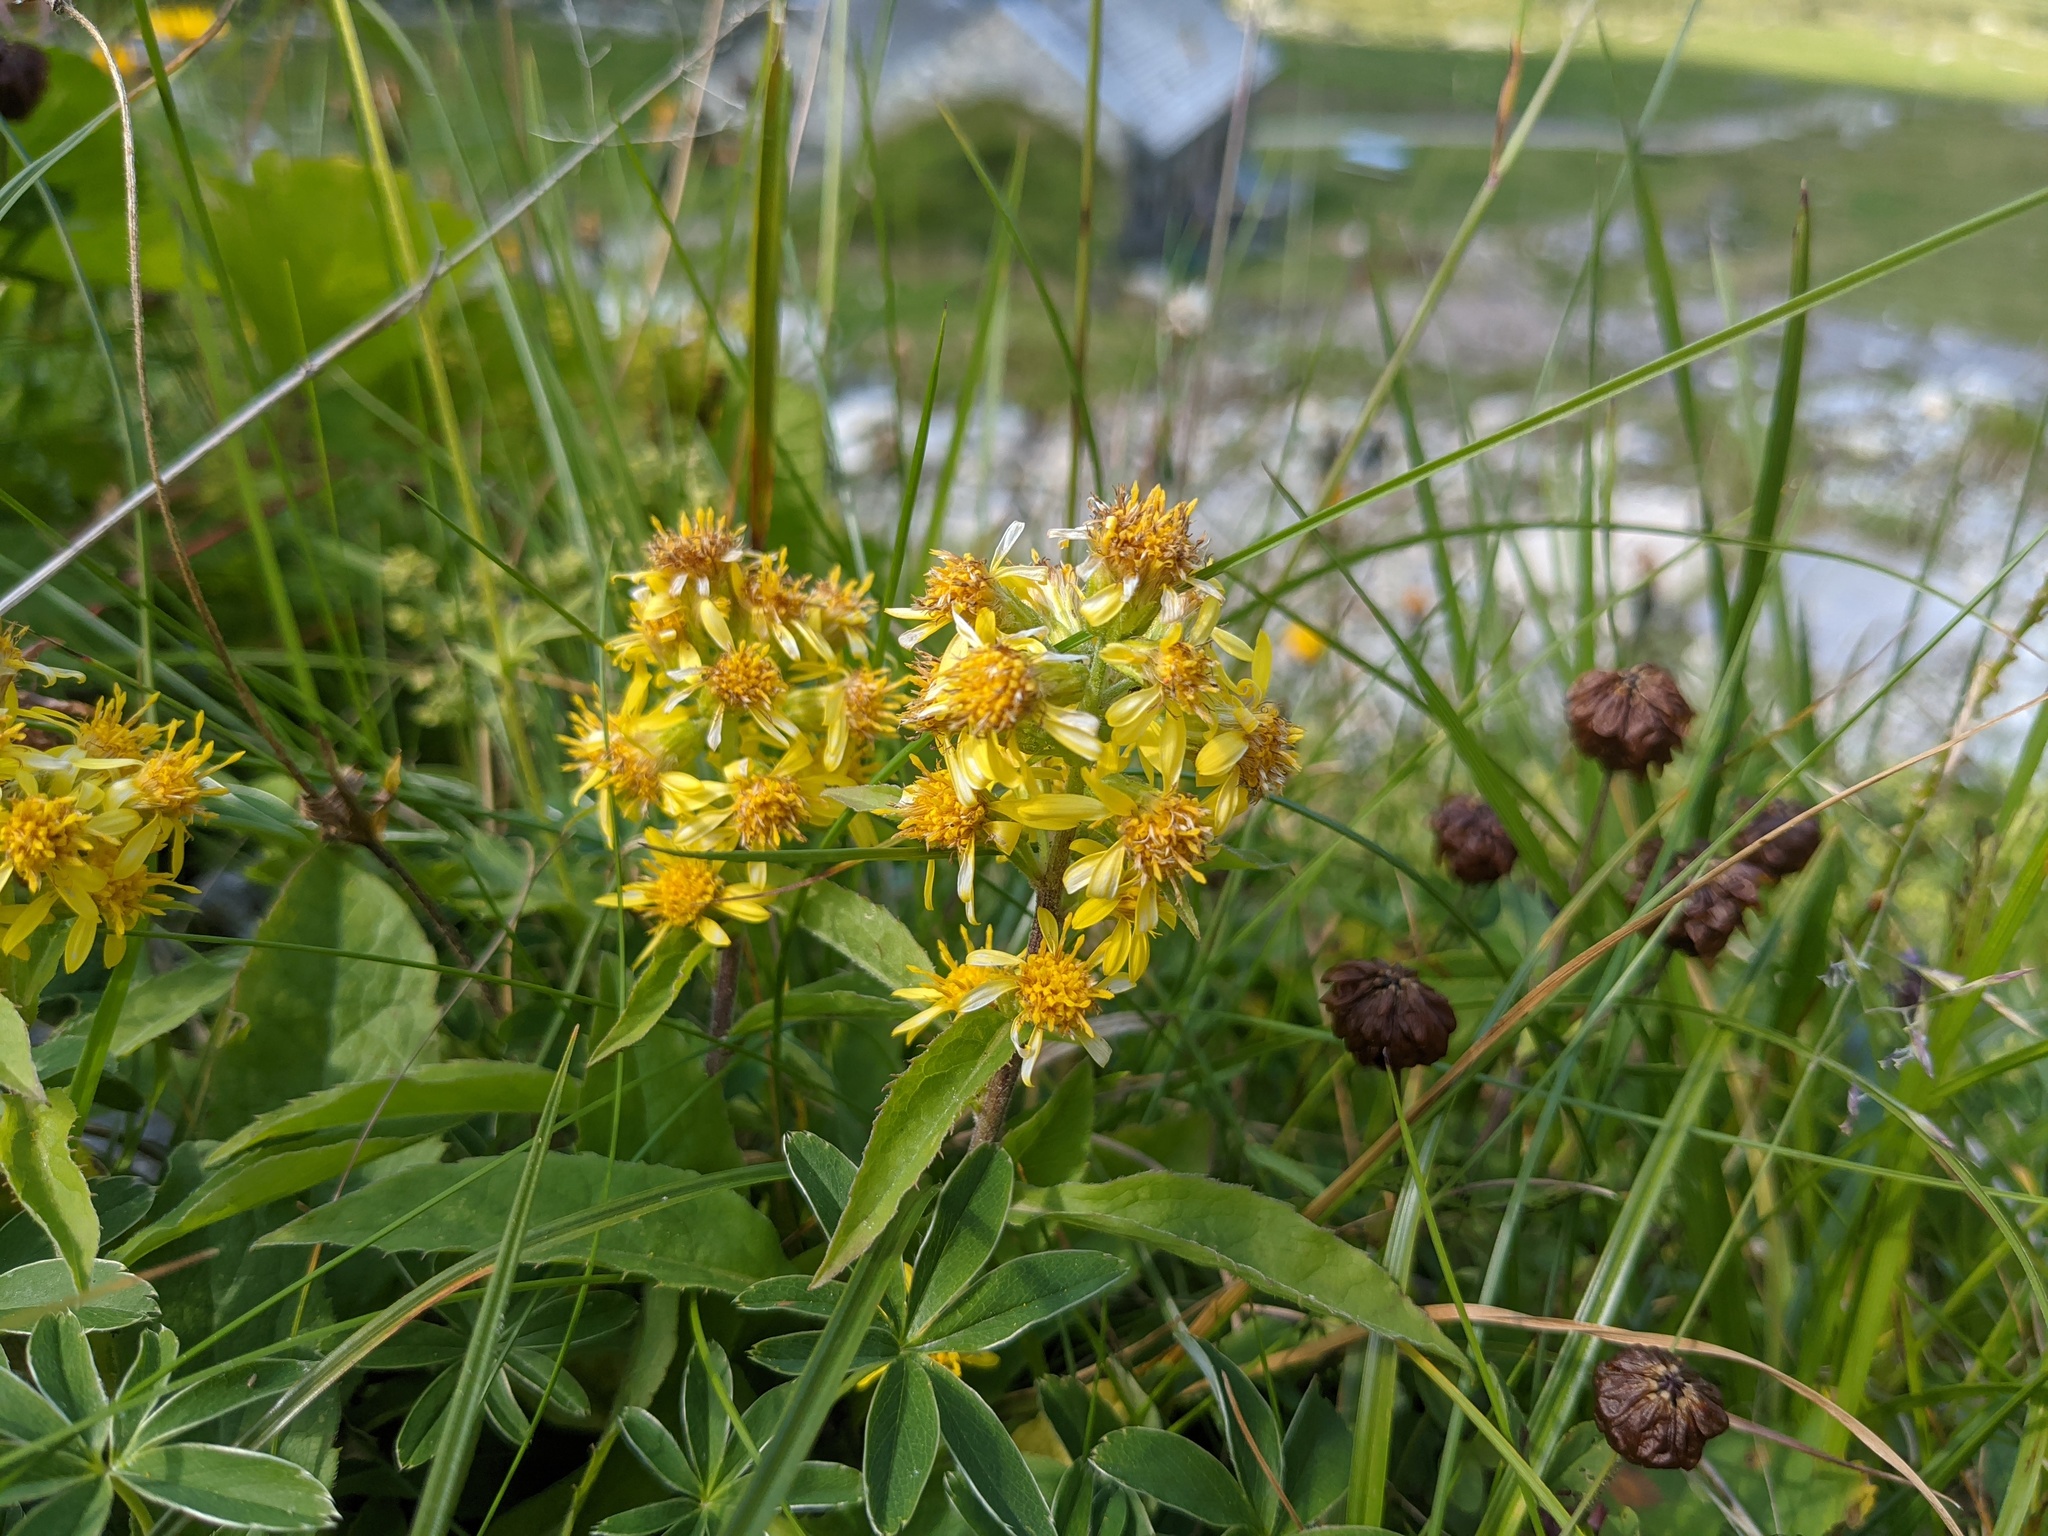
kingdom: Plantae
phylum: Tracheophyta
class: Magnoliopsida
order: Asterales
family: Asteraceae
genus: Solidago
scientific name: Solidago virgaurea
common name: Goldenrod
